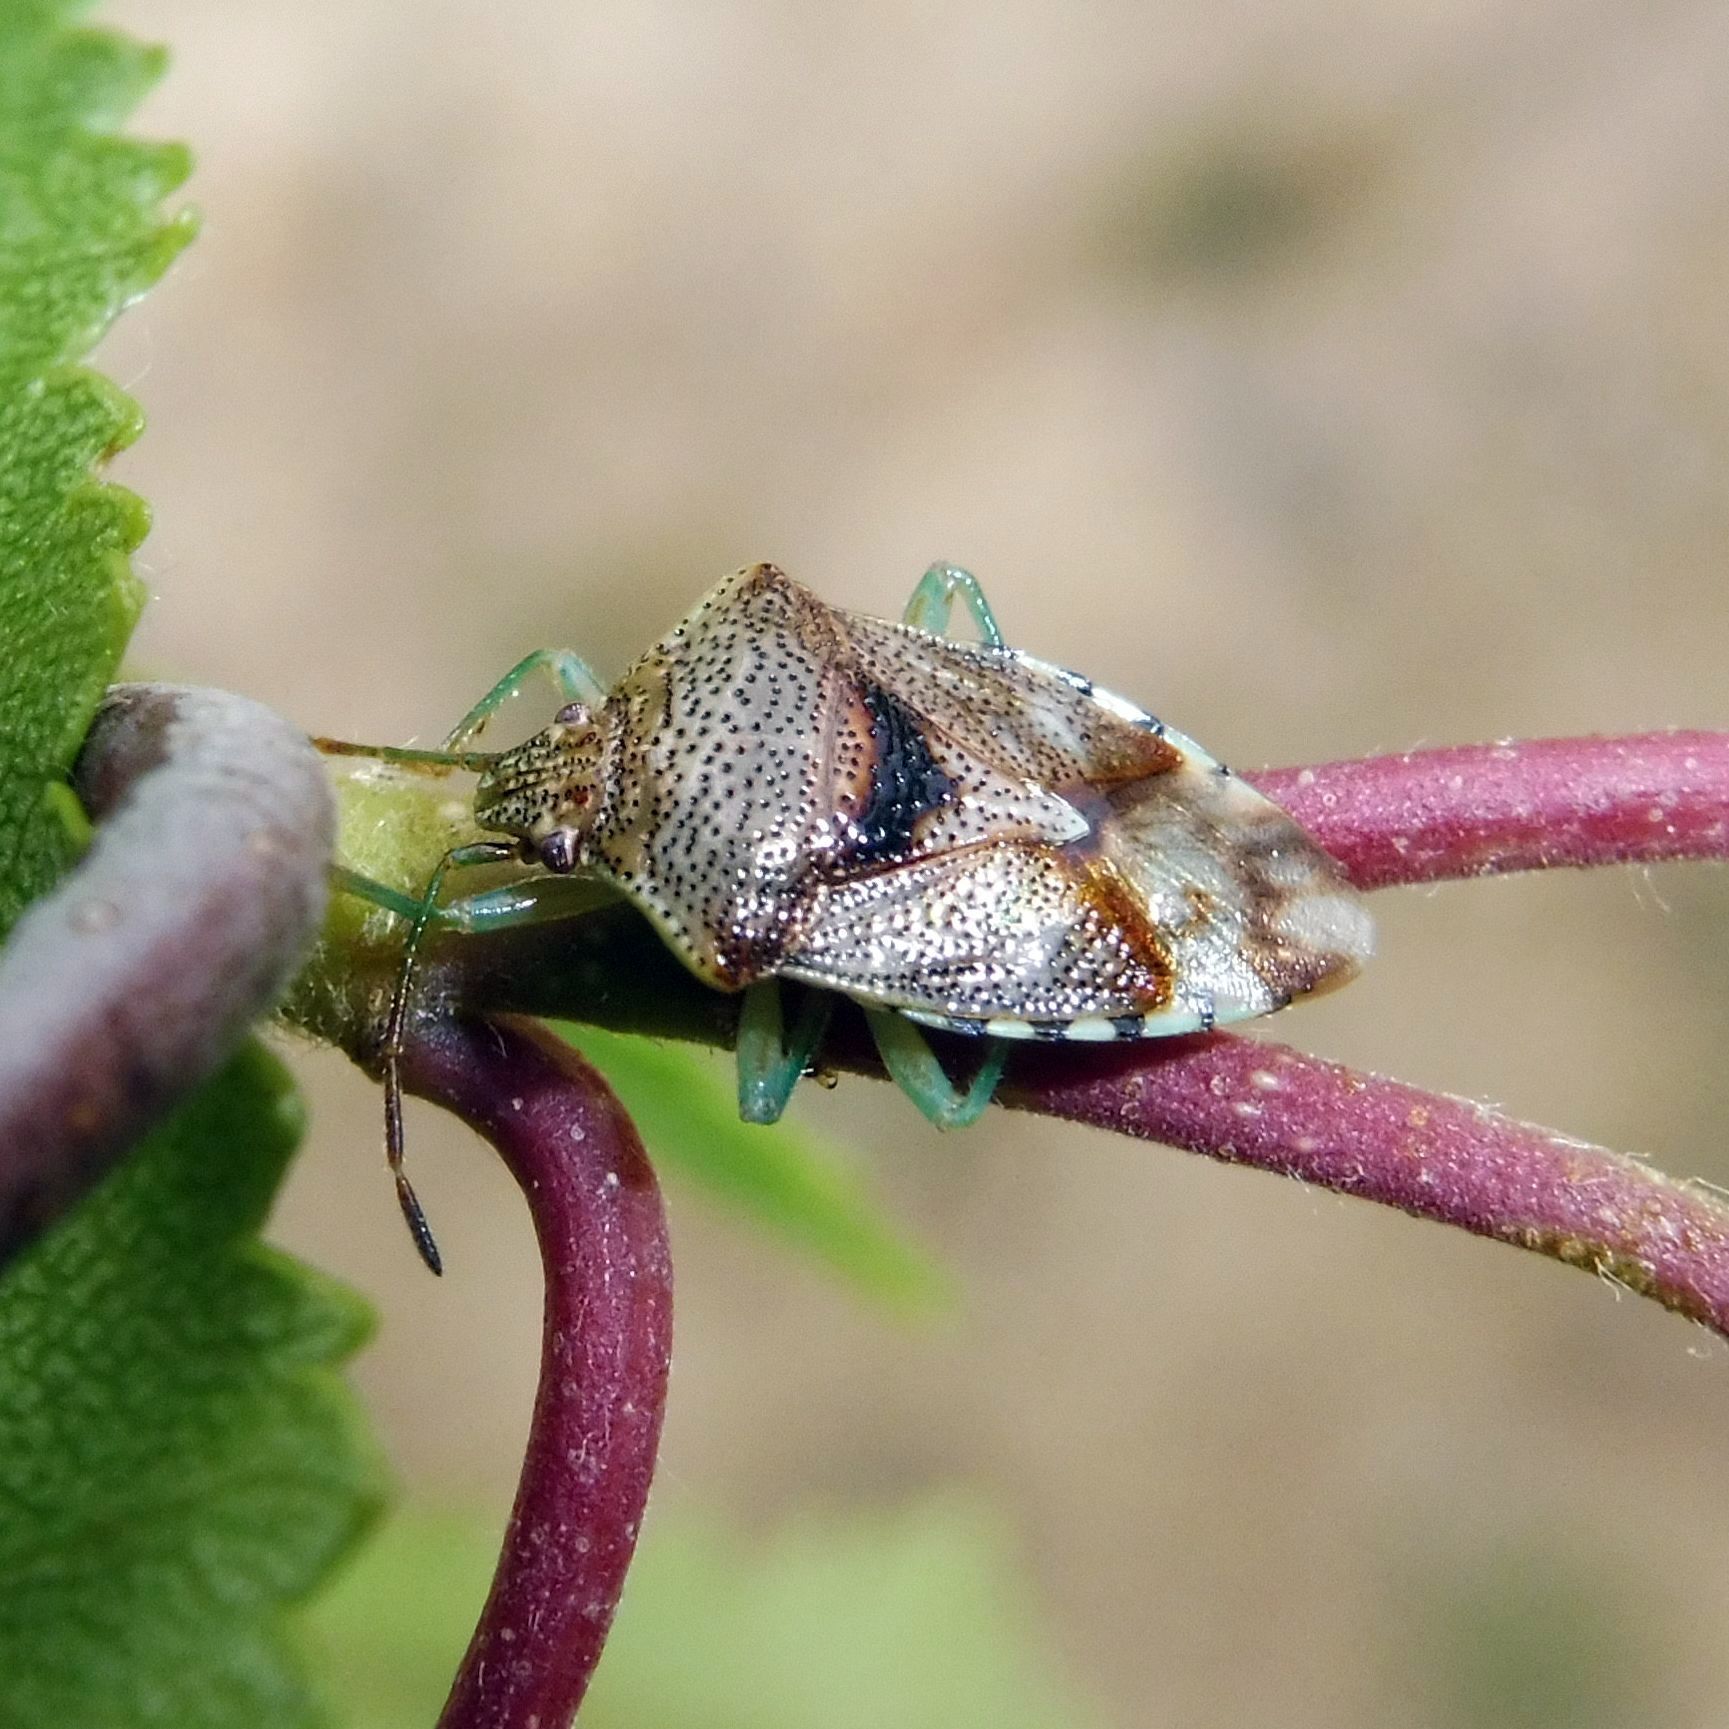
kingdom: Animalia
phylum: Arthropoda
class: Insecta
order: Hemiptera
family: Acanthosomatidae
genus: Elasmucha
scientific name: Elasmucha grisea
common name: Parent bug
